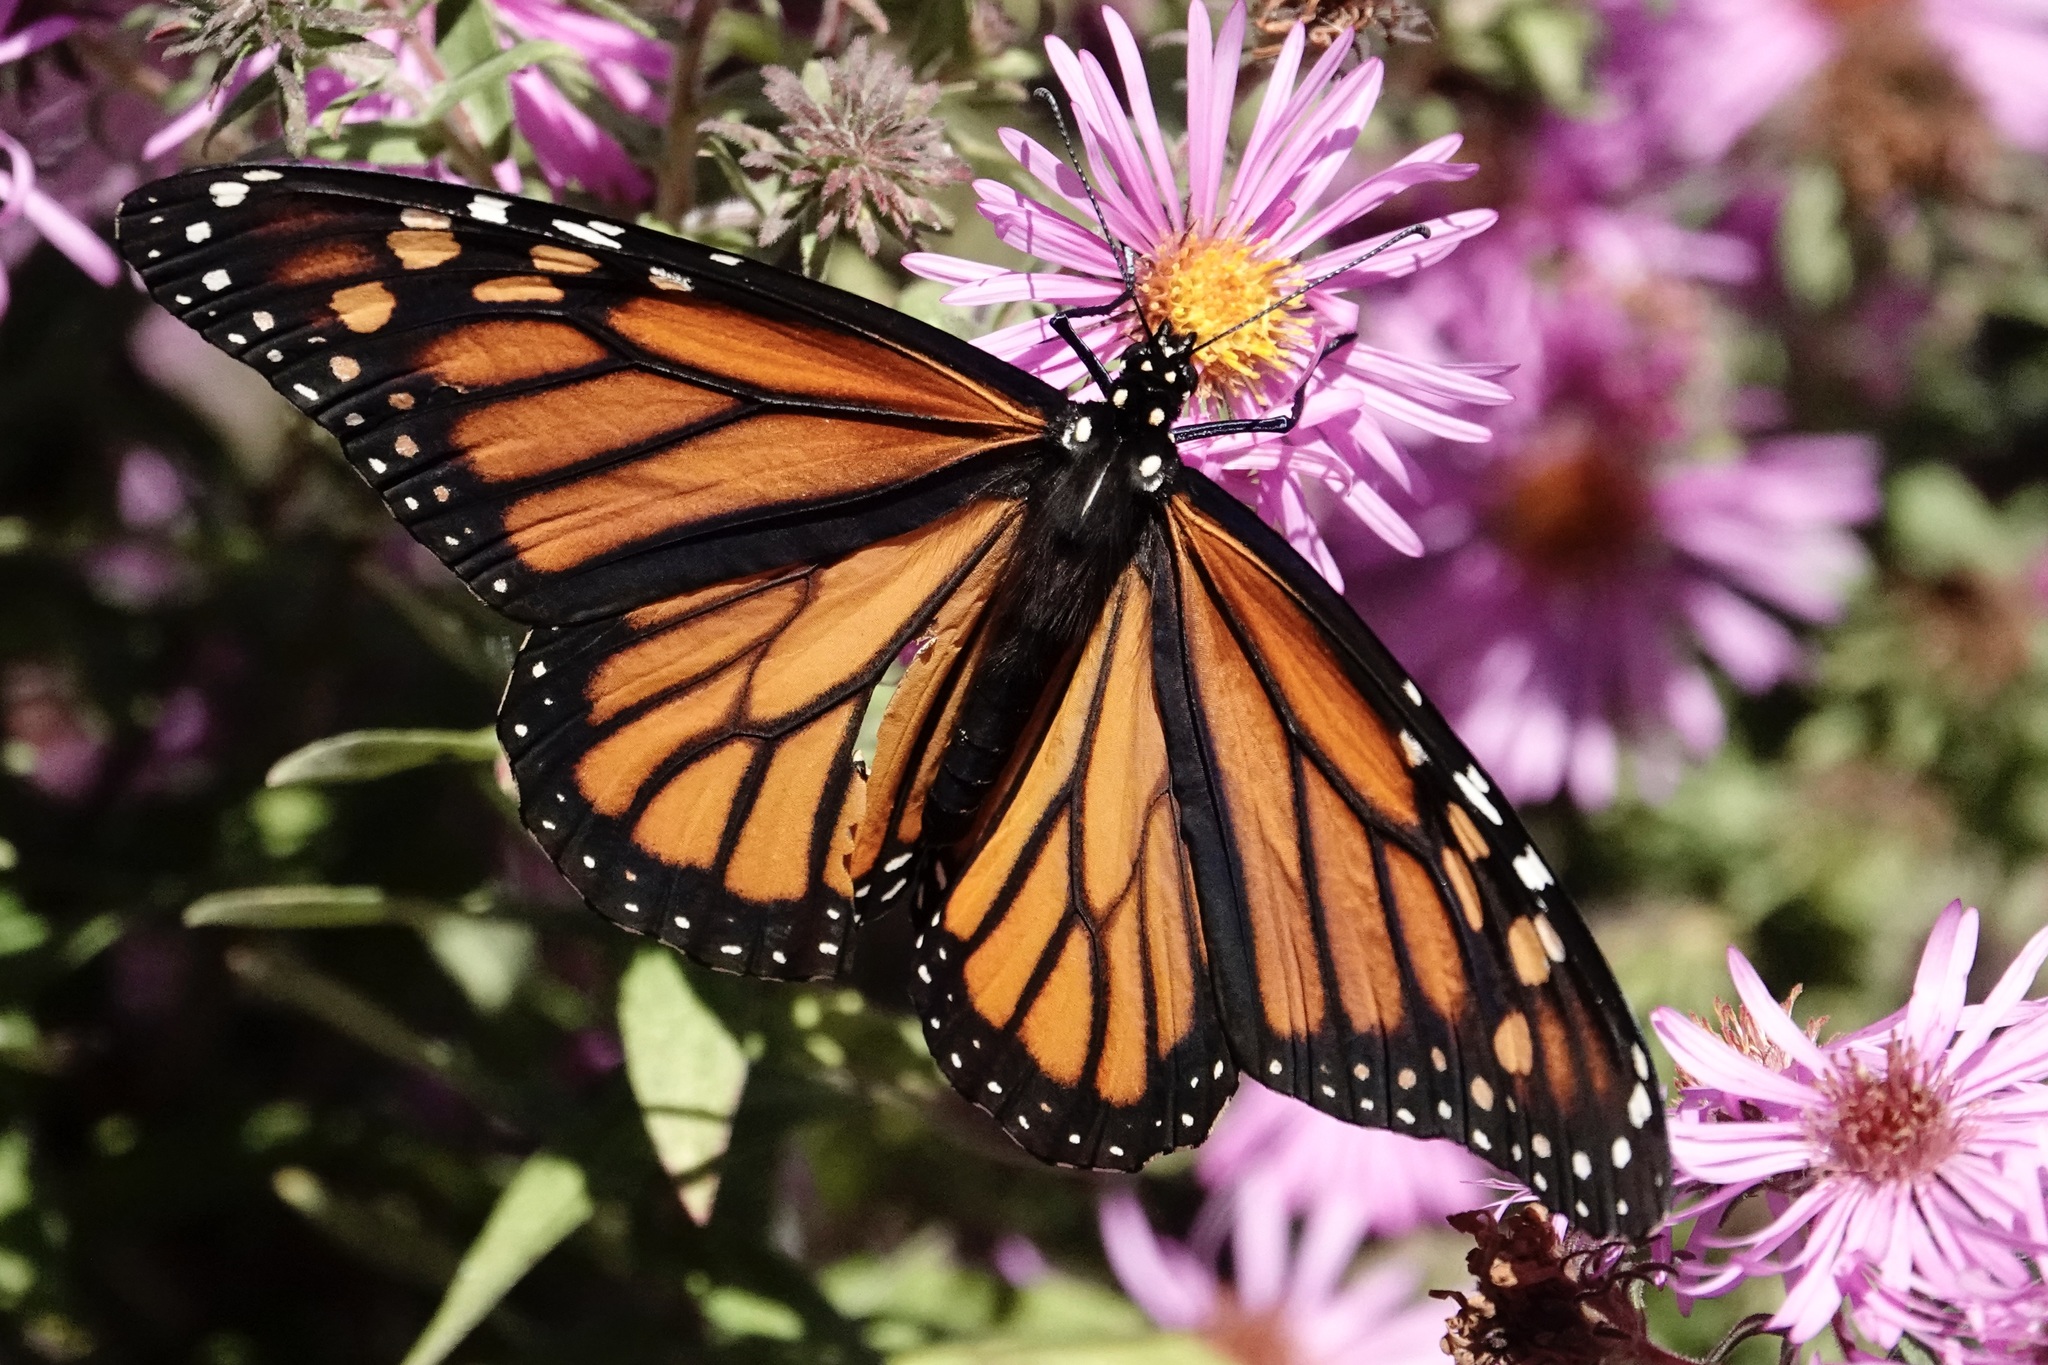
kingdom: Animalia
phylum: Arthropoda
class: Insecta
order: Lepidoptera
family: Nymphalidae
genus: Danaus
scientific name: Danaus plexippus
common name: Monarch
